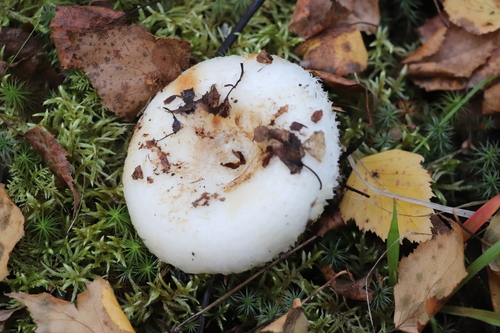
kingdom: Fungi
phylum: Basidiomycota
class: Agaricomycetes
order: Russulales
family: Russulaceae
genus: Lactarius
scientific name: Lactarius aquizonatus
